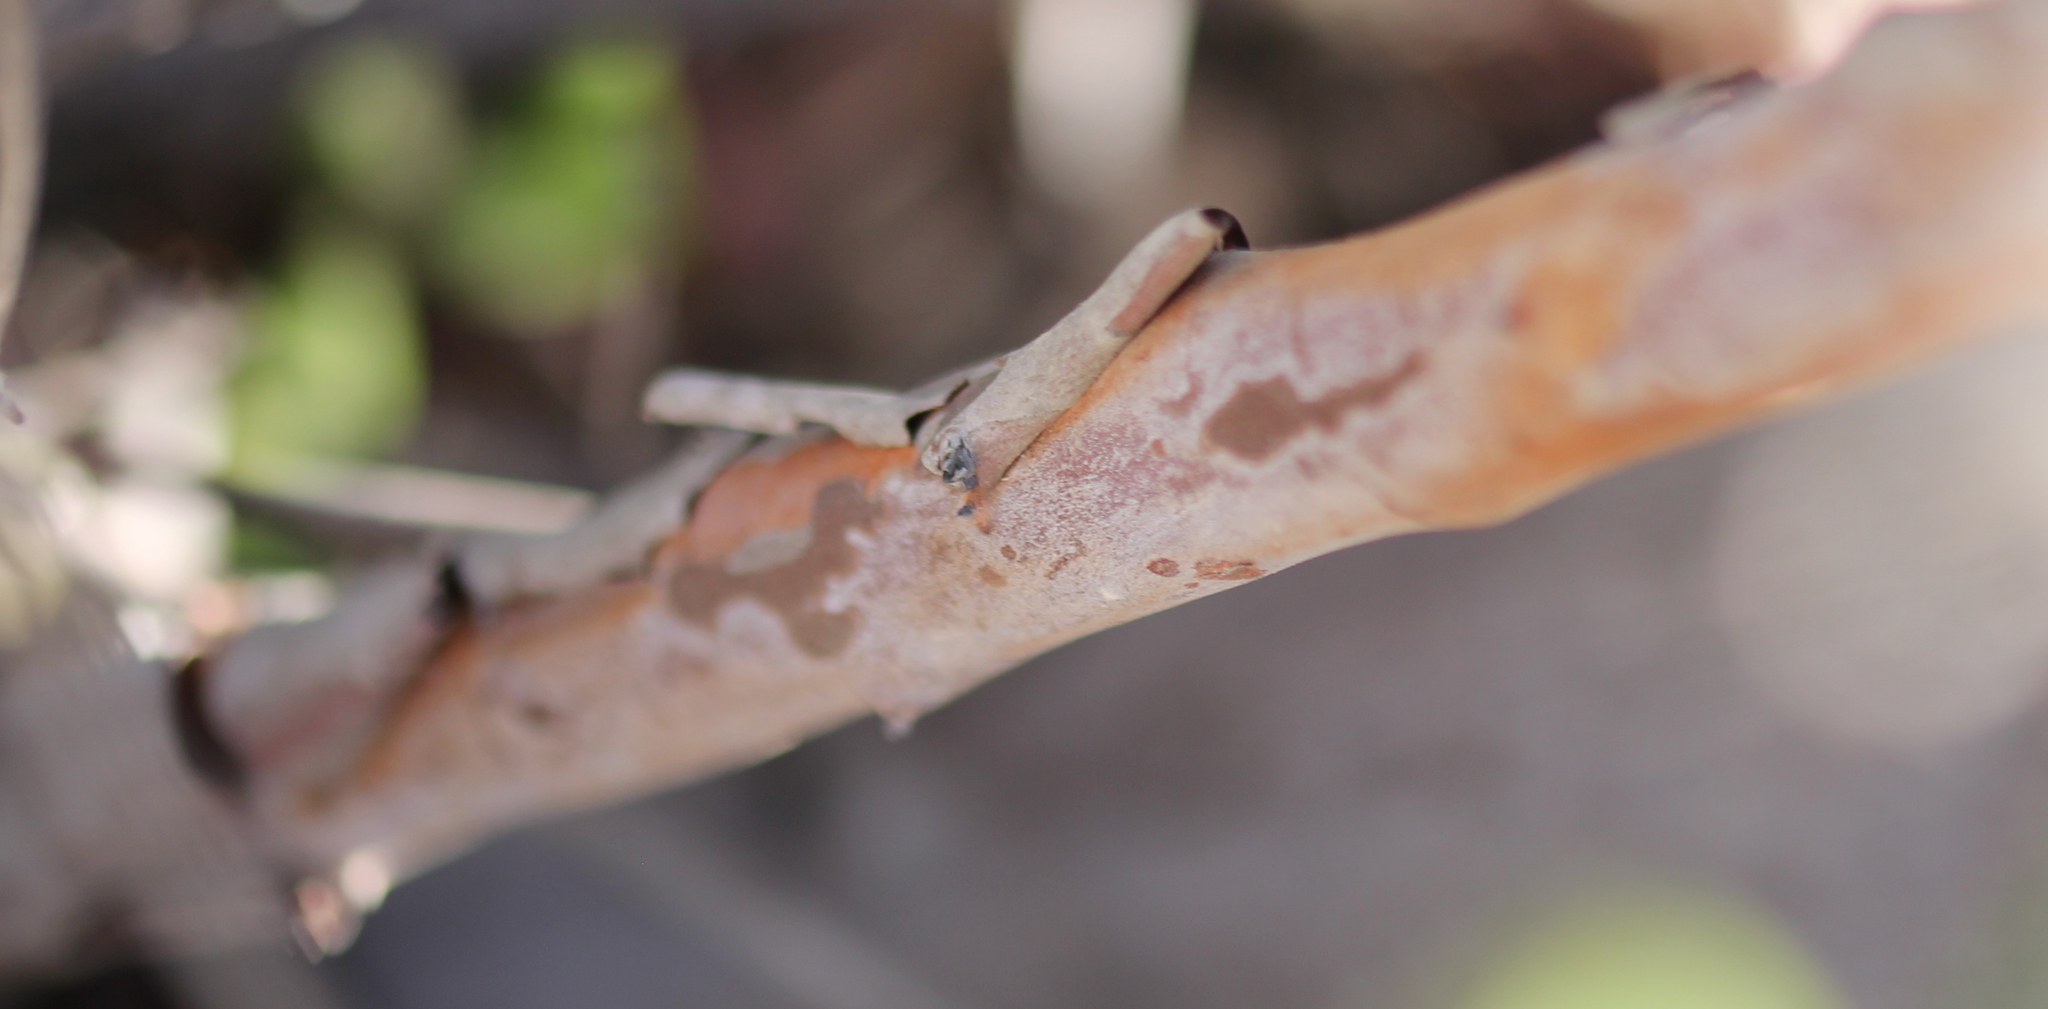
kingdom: Plantae
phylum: Tracheophyta
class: Magnoliopsida
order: Ericales
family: Ericaceae
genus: Arctostaphylos
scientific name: Arctostaphylos bicolor
